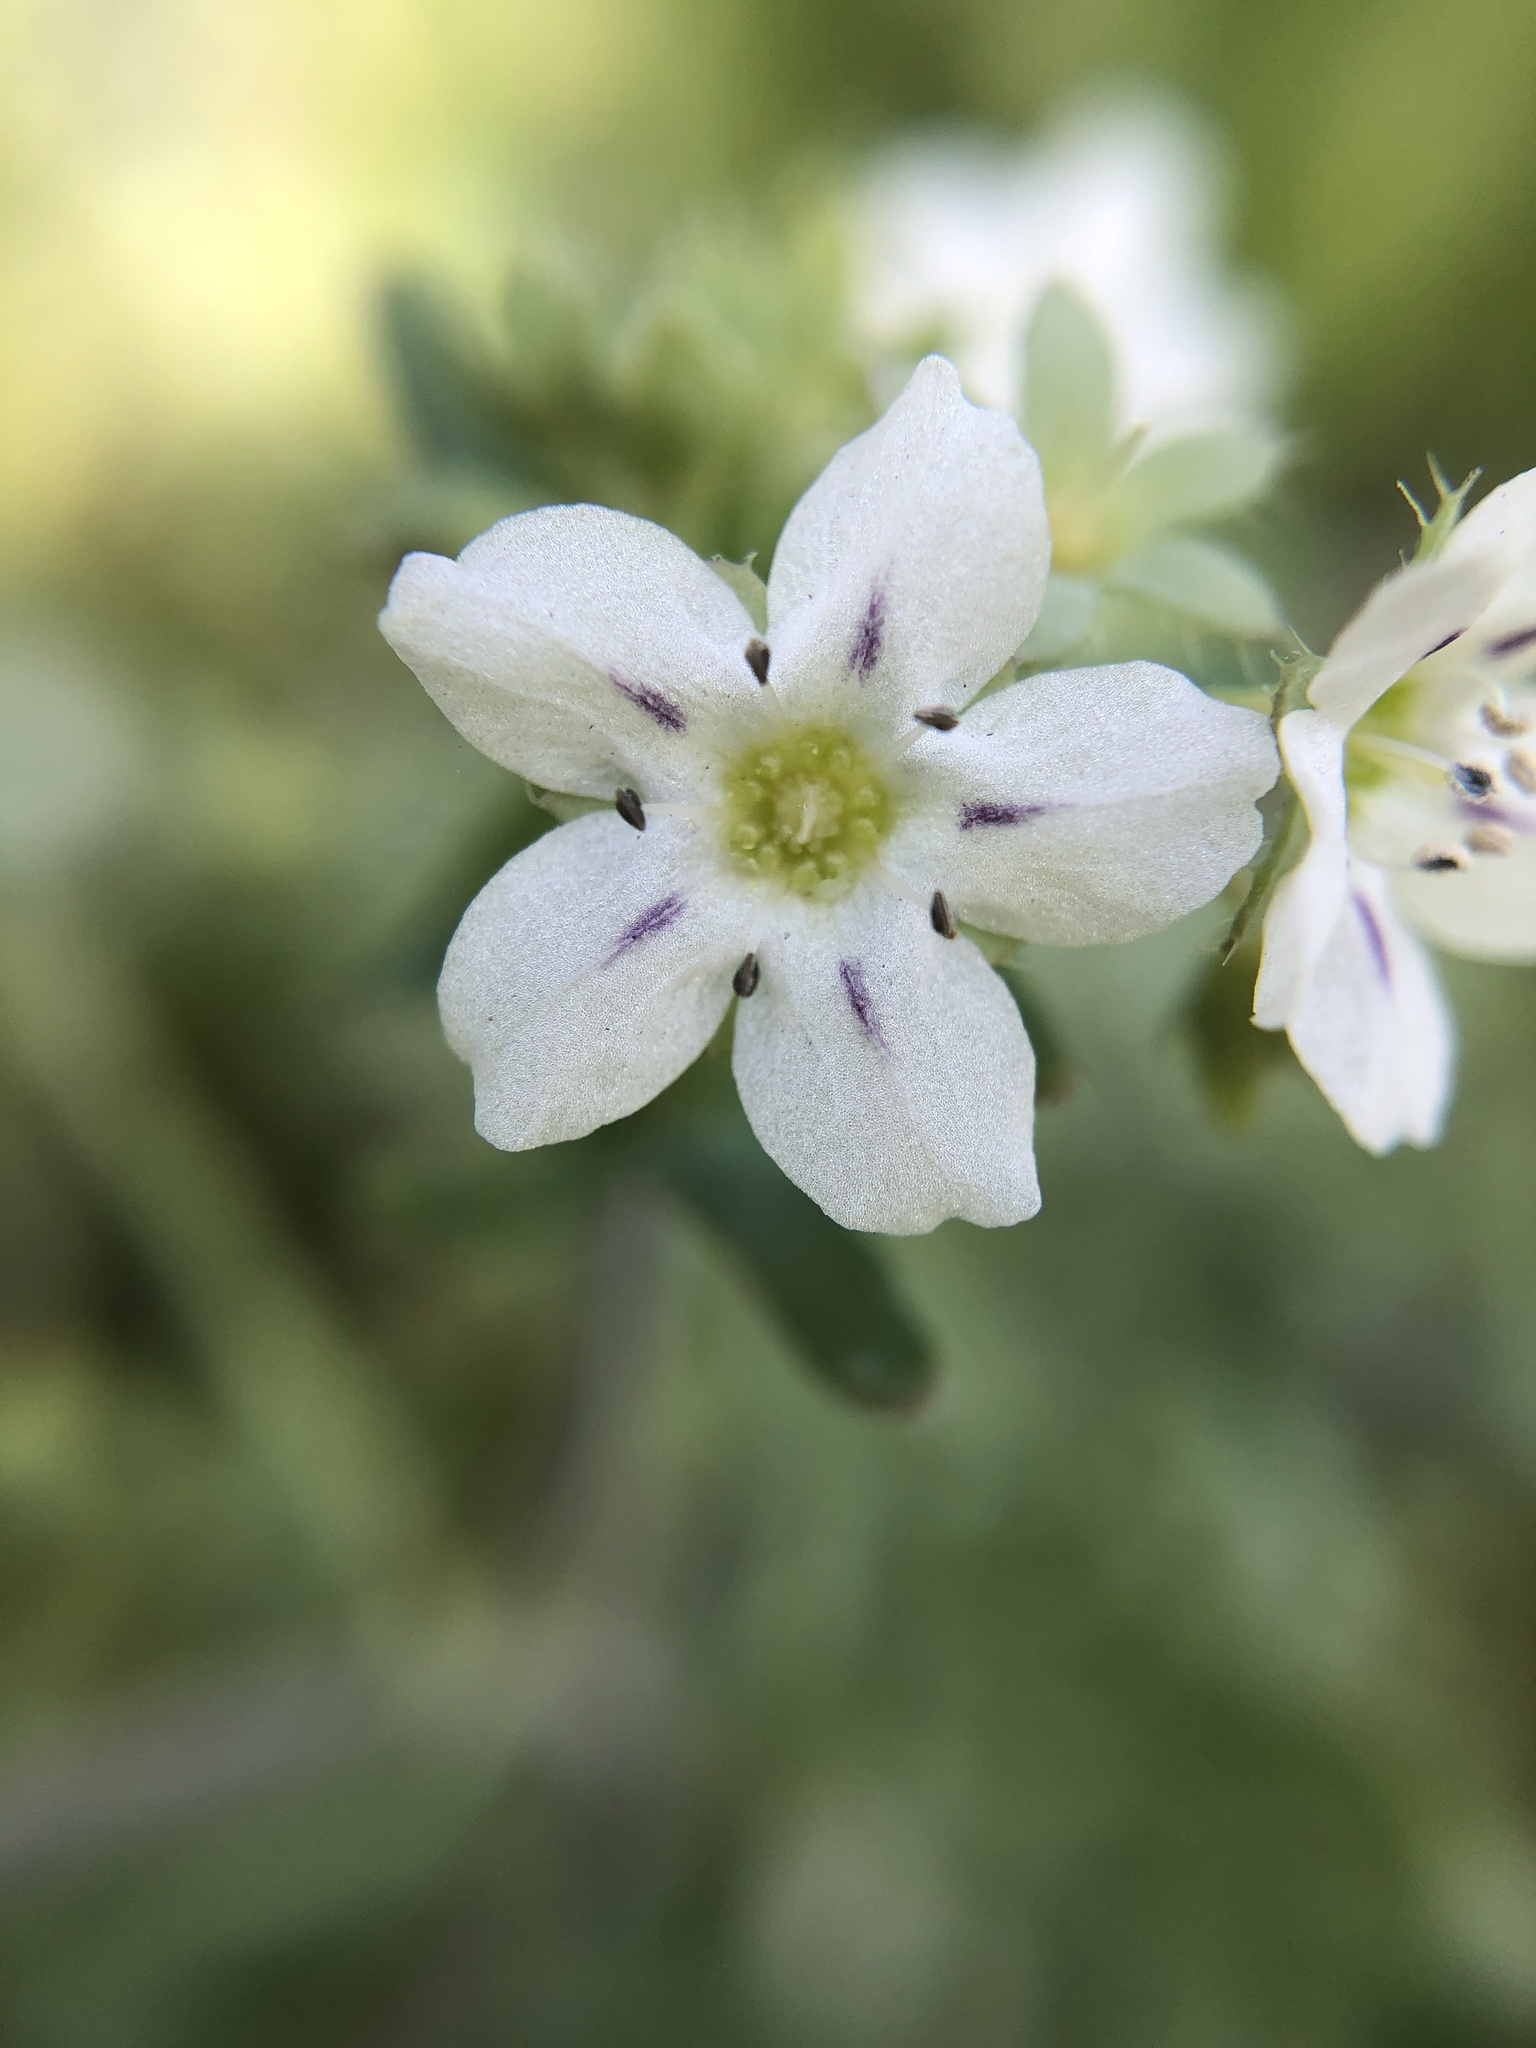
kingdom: Plantae
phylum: Tracheophyta
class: Magnoliopsida
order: Boraginales
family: Hydrophyllaceae
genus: Pholistoma
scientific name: Pholistoma membranaceum
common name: White fiesta-flower
